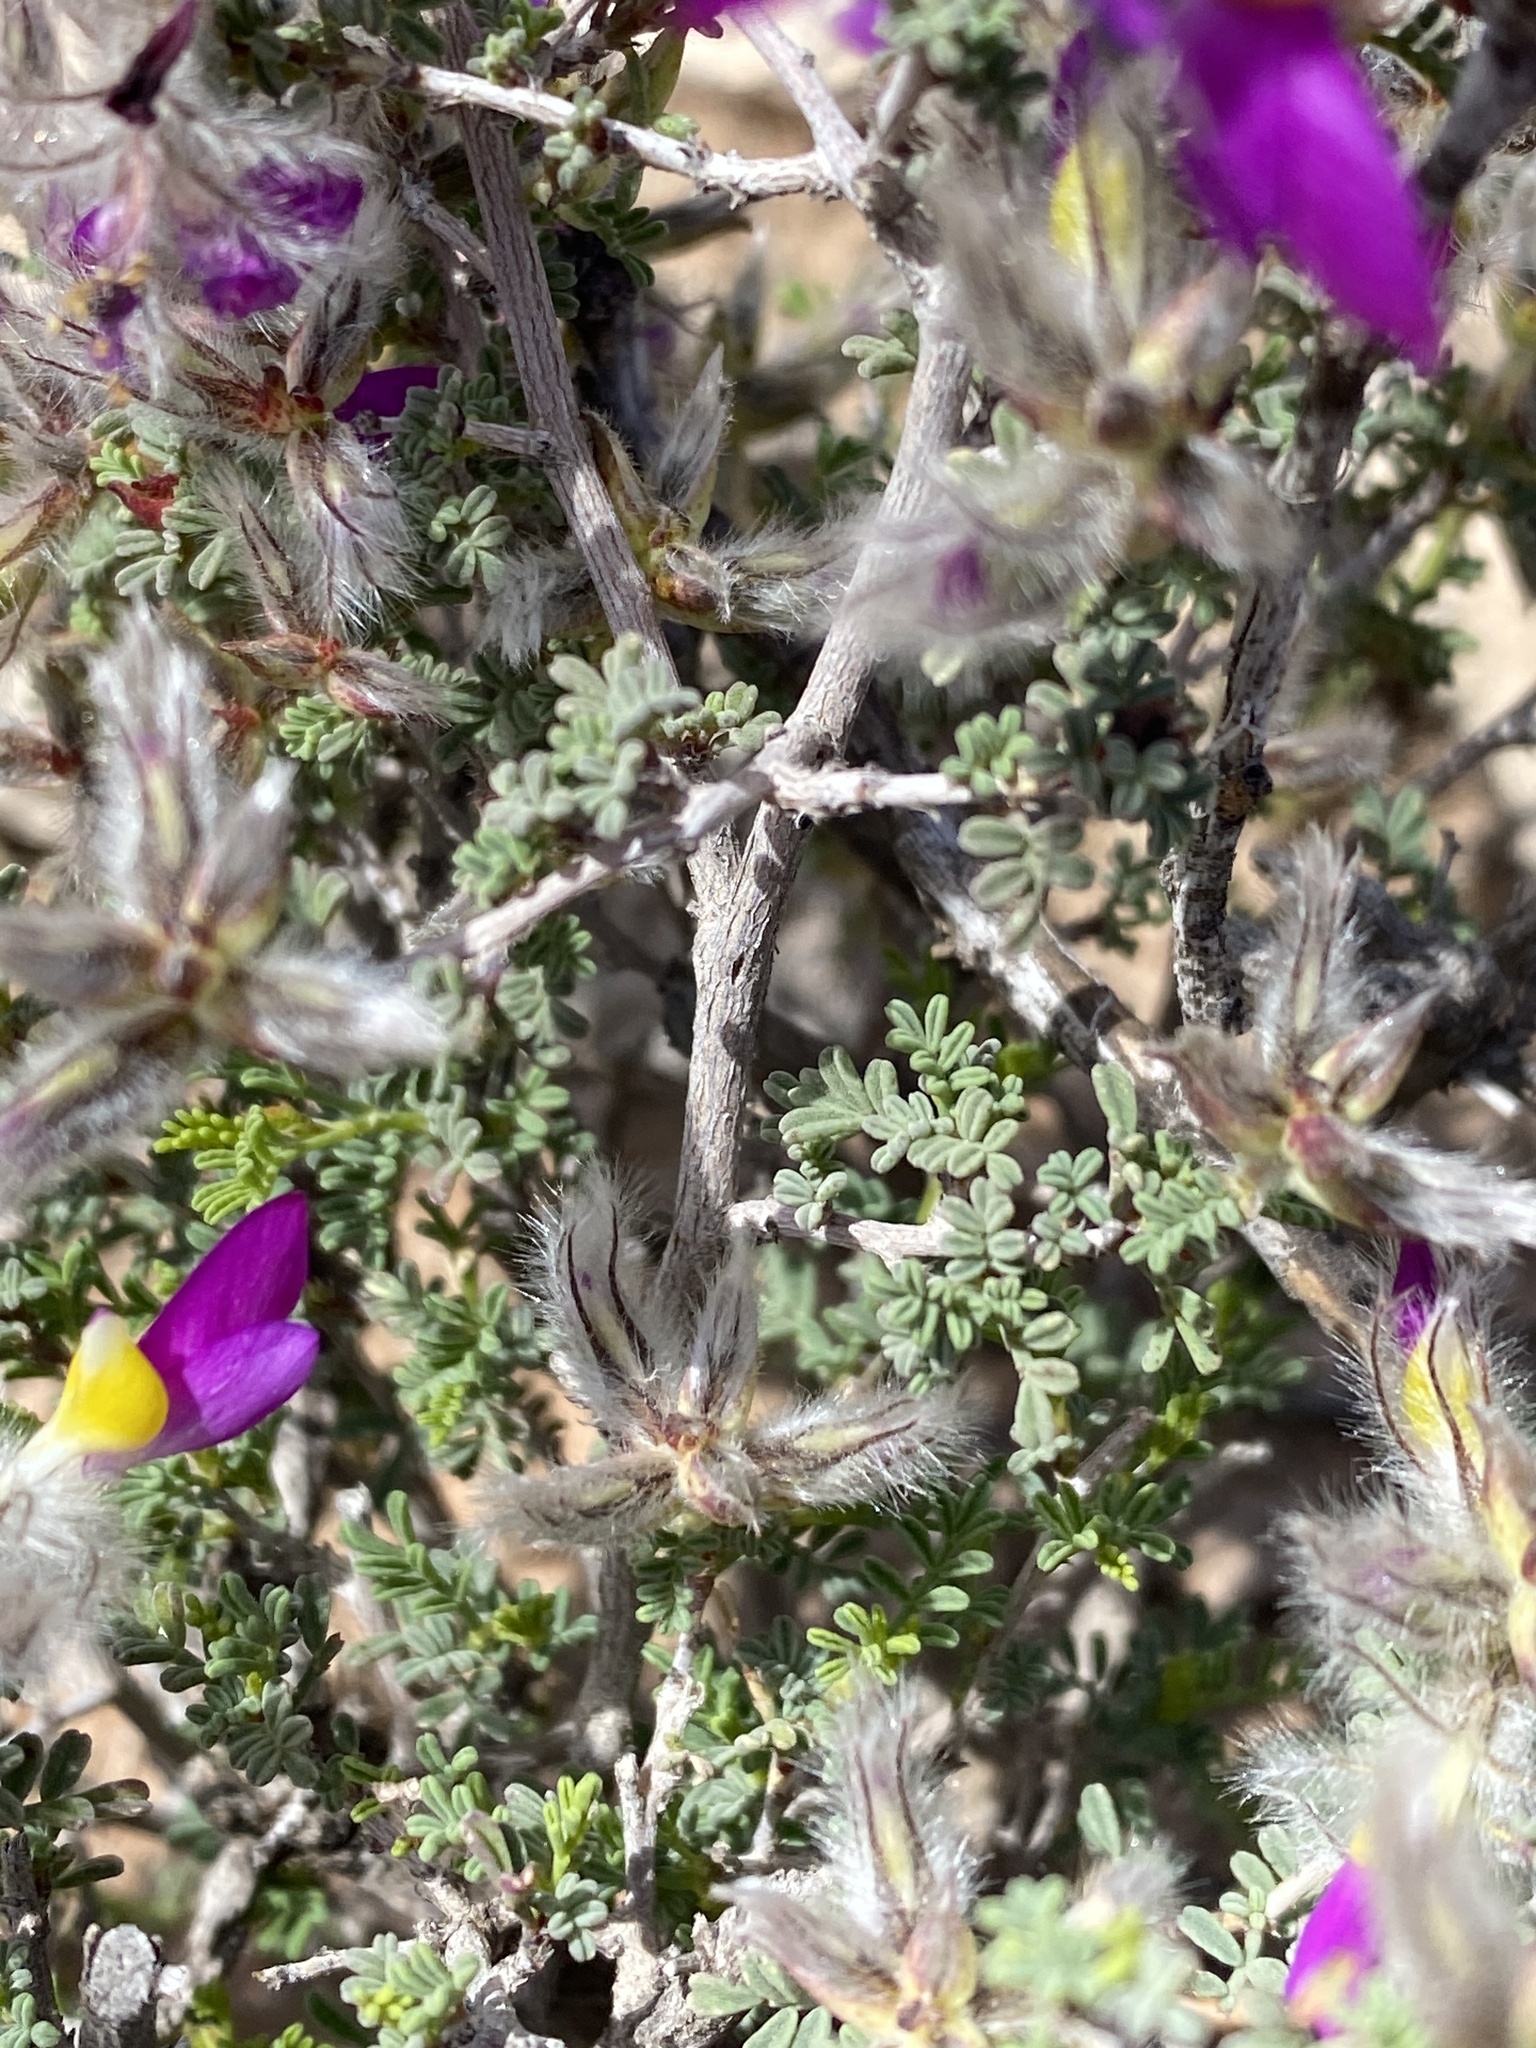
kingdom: Plantae
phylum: Tracheophyta
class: Magnoliopsida
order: Fabales
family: Fabaceae
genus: Dalea
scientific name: Dalea formosa
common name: Feather-plume dalea
